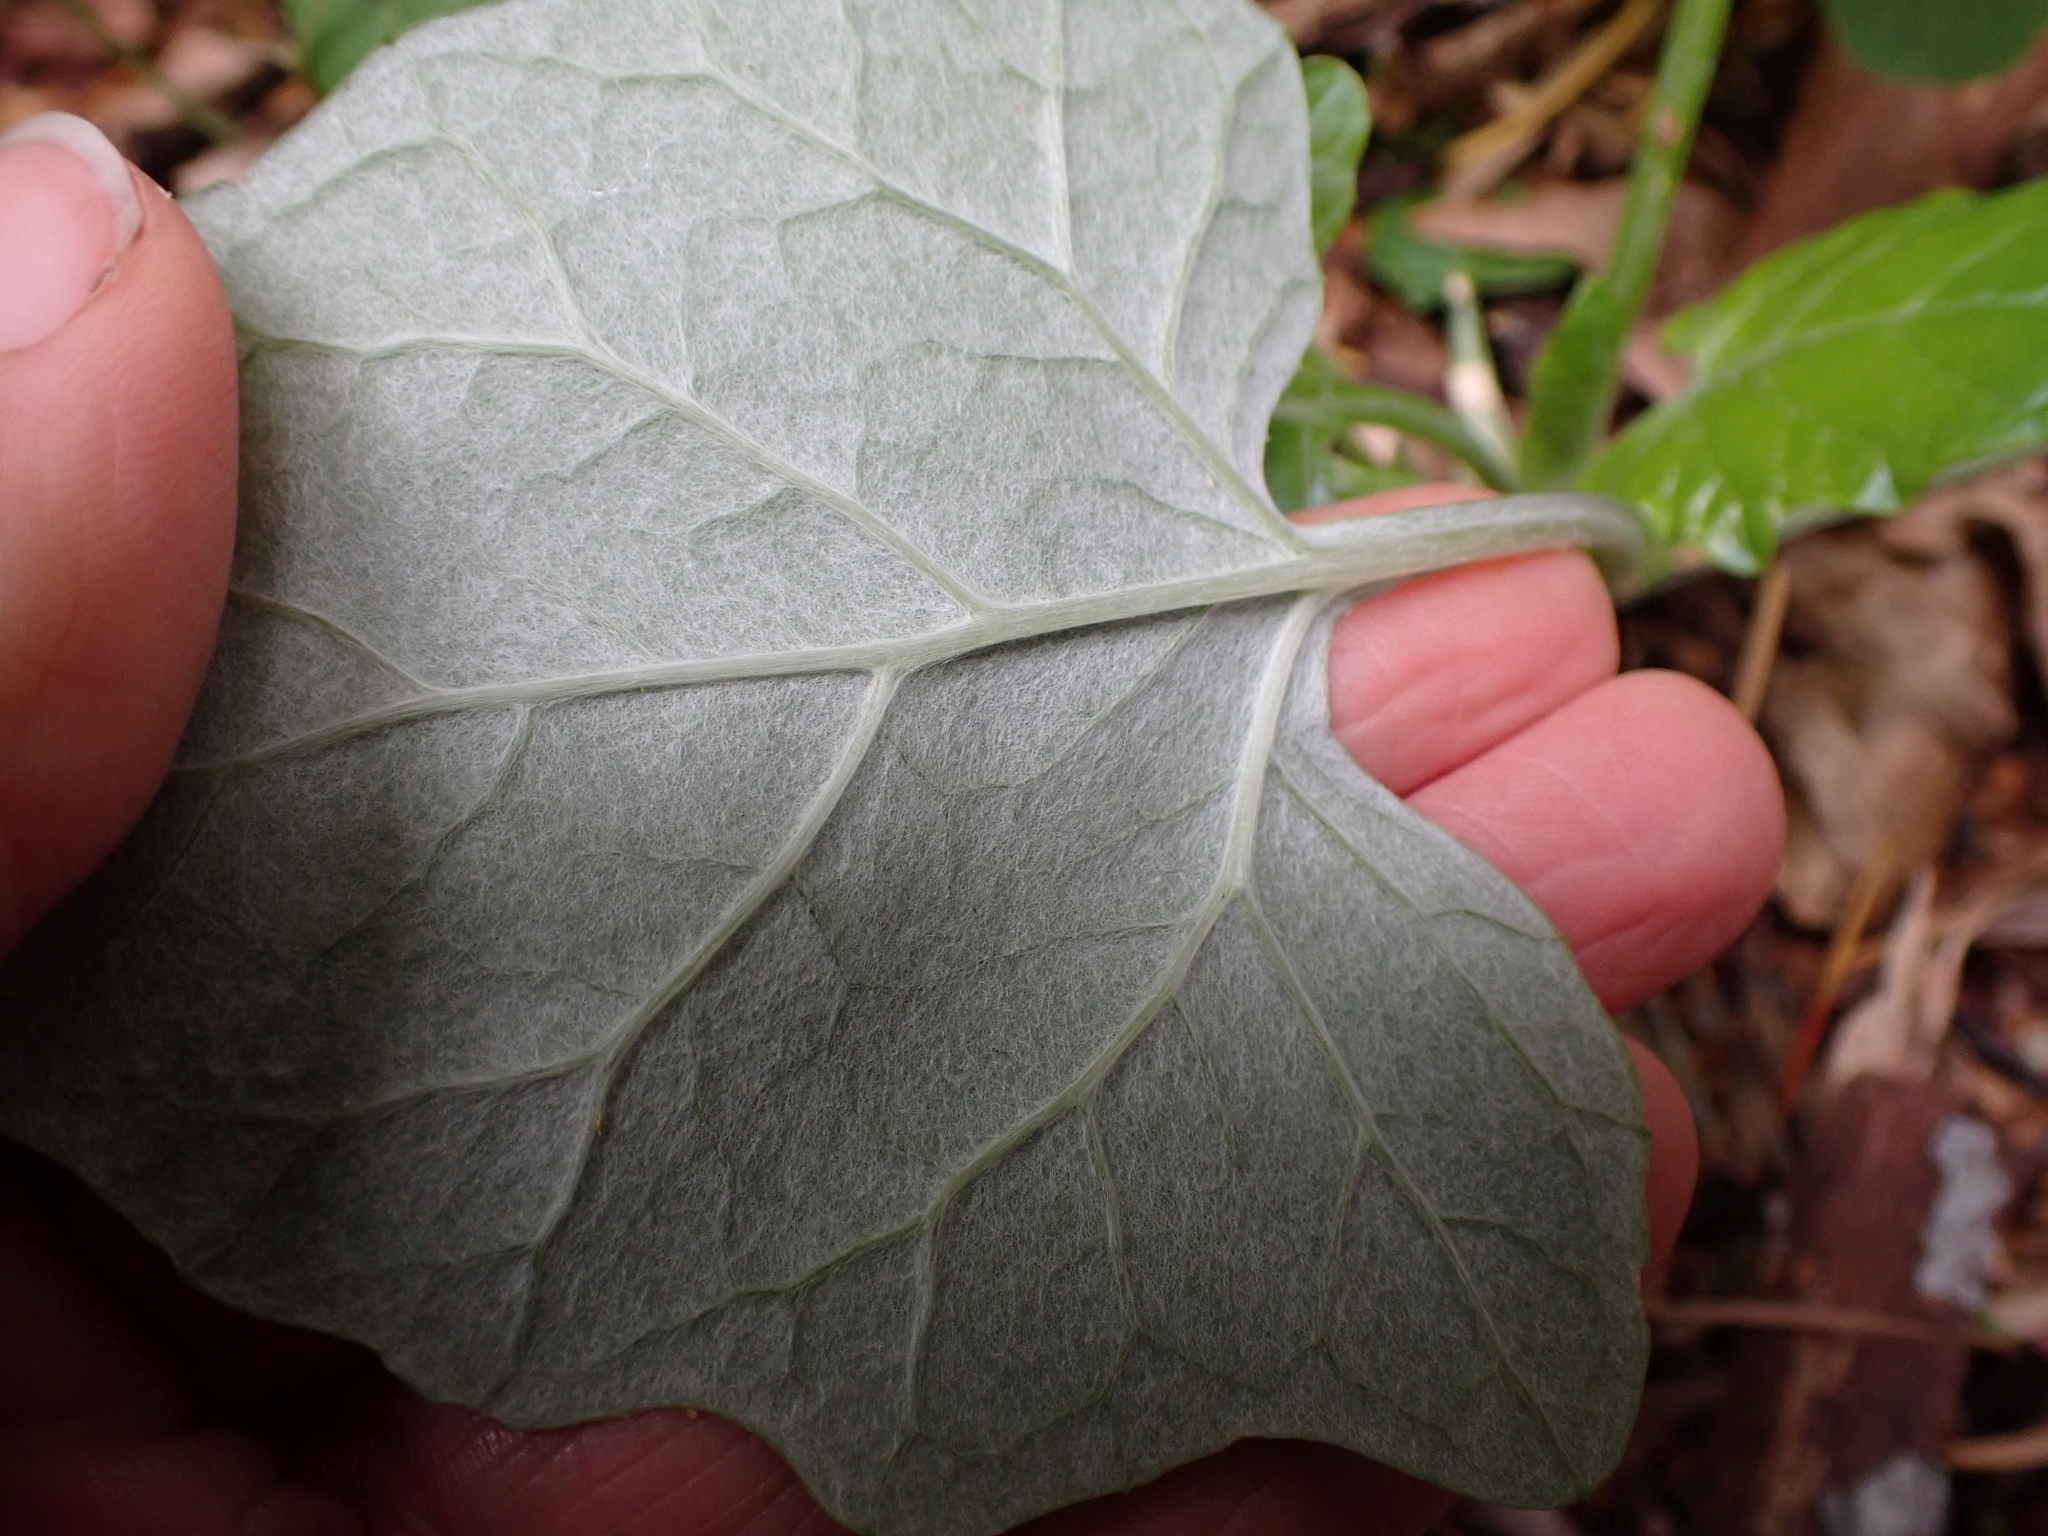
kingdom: Plantae
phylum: Tracheophyta
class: Magnoliopsida
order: Asterales
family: Asteraceae
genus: Adenocaulon
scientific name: Adenocaulon bicolor
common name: Trailplant
